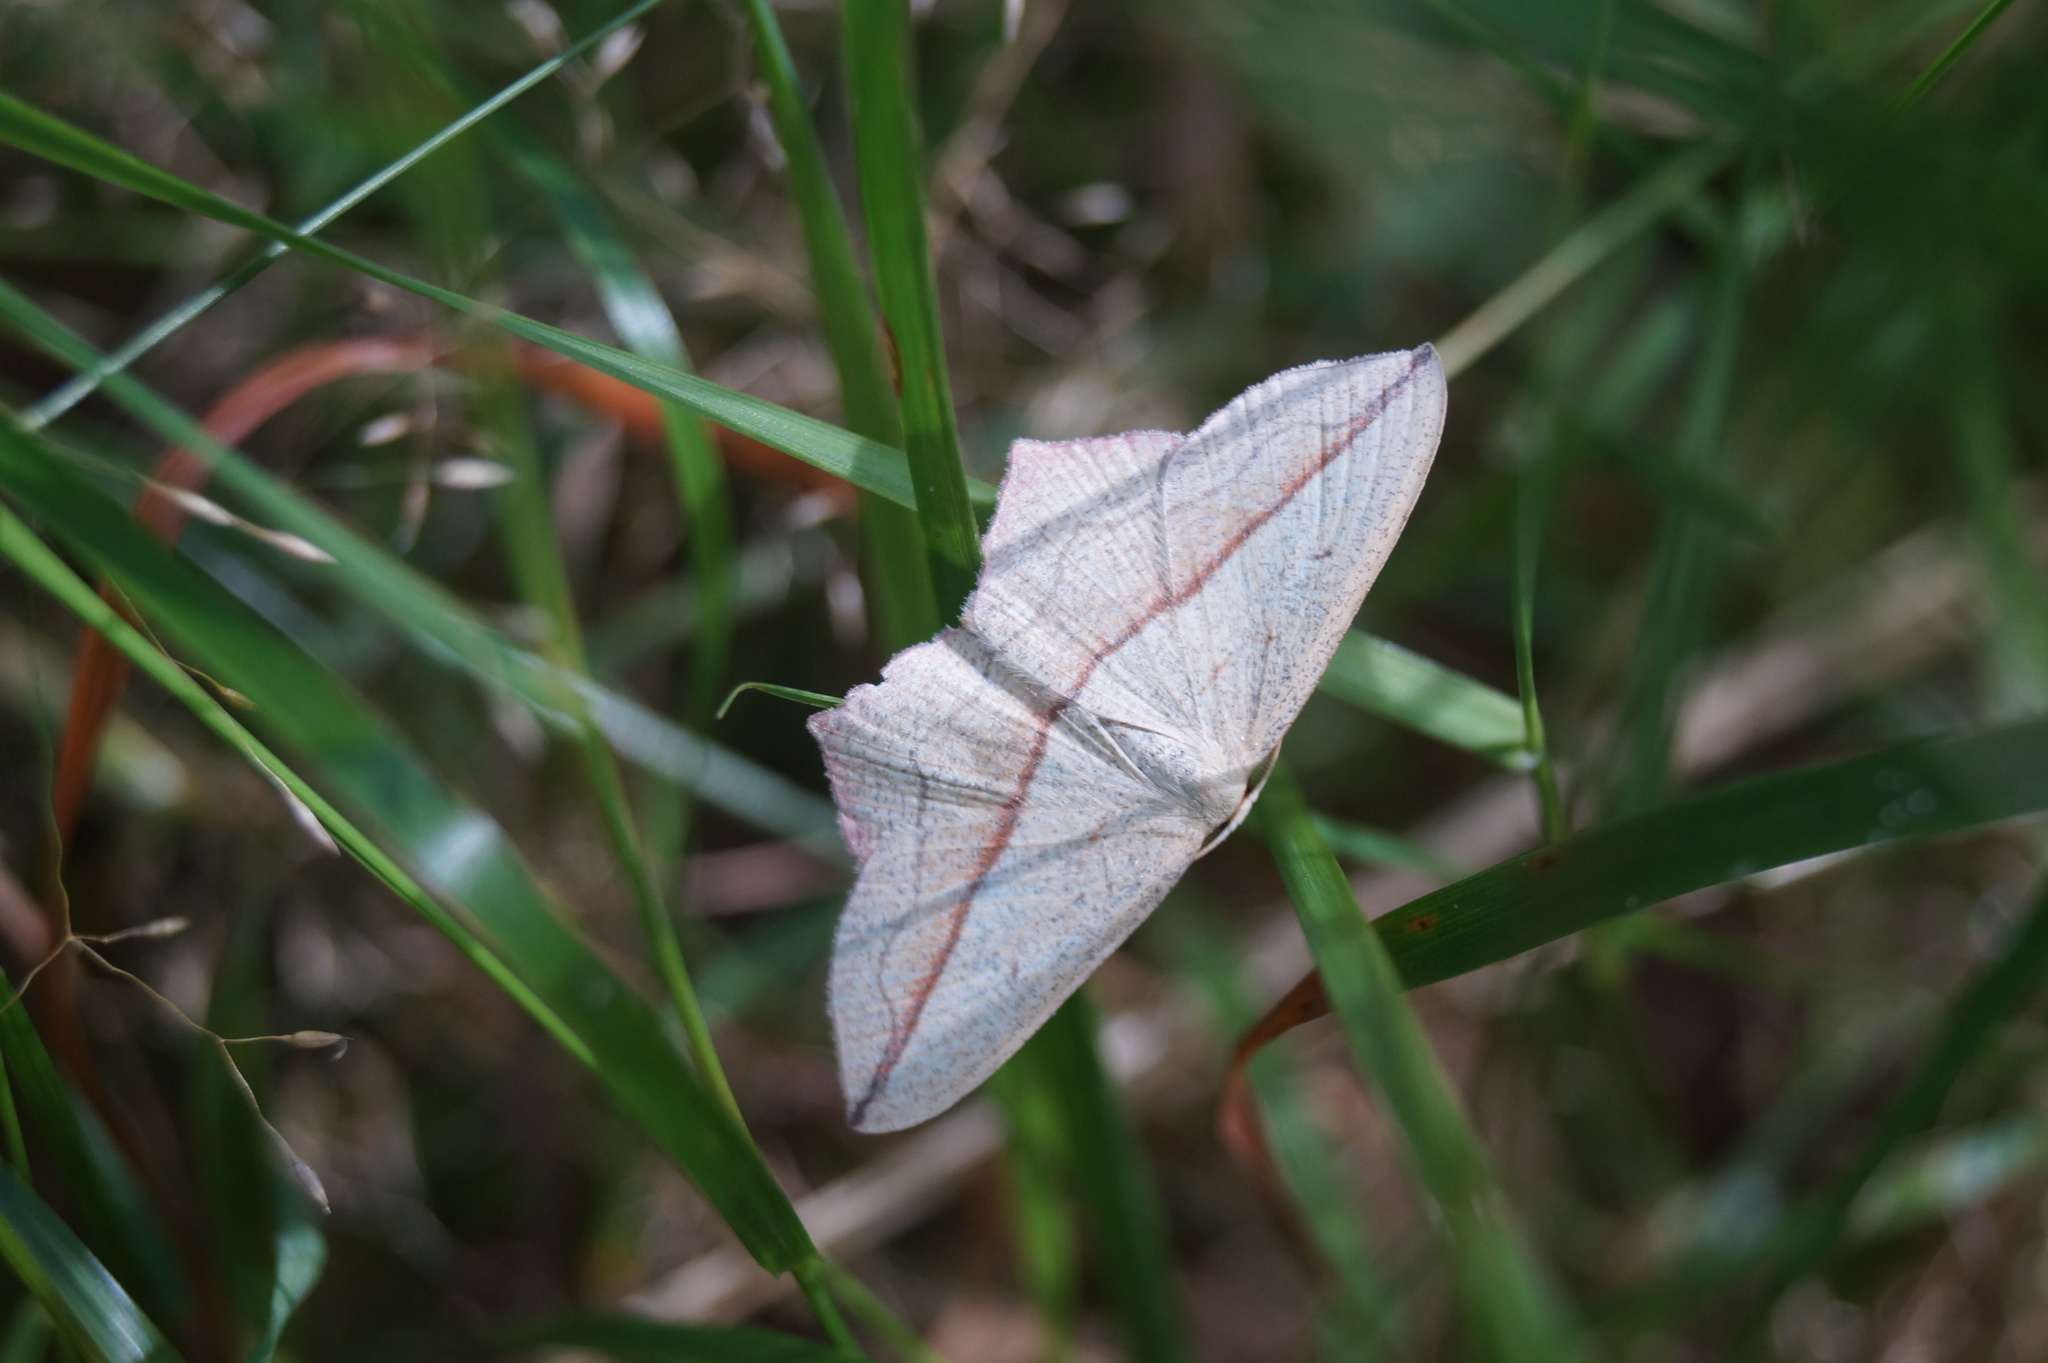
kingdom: Animalia
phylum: Arthropoda
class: Insecta
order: Lepidoptera
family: Geometridae
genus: Timandra
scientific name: Timandra comae
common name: Blood-vein
